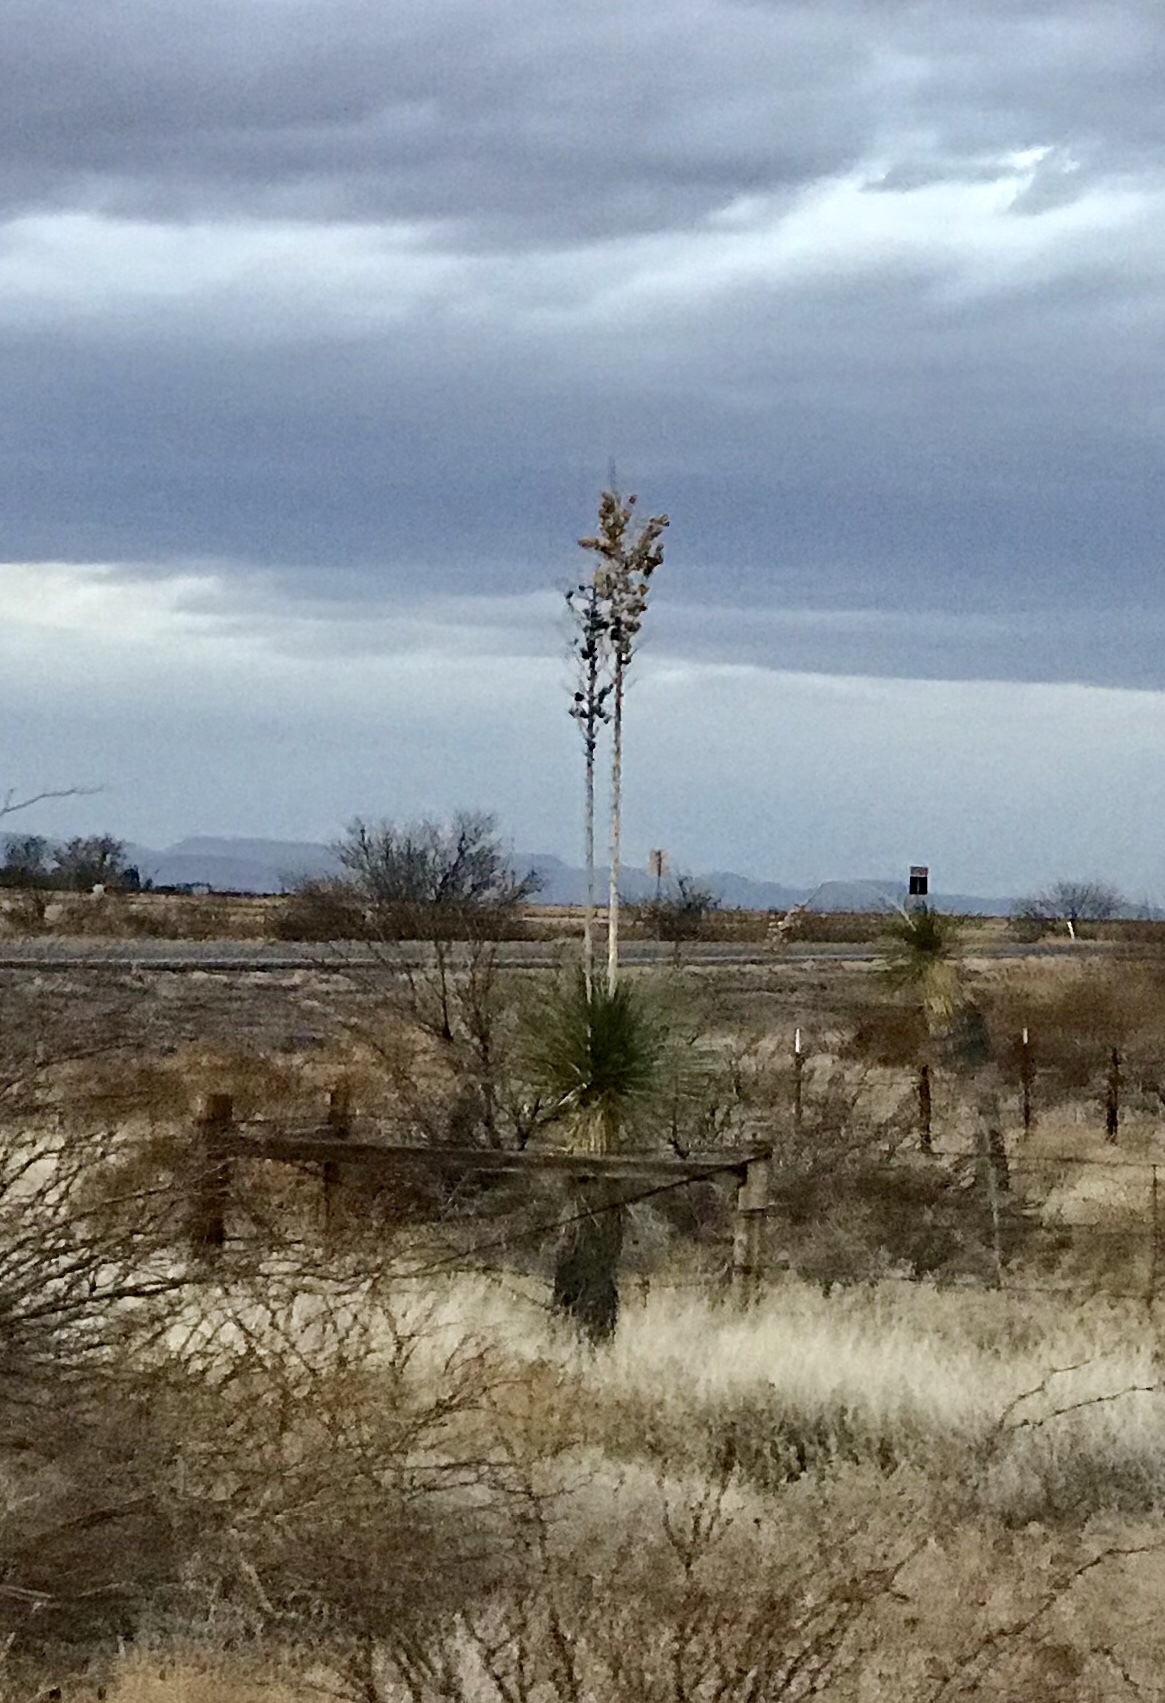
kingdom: Plantae
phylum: Tracheophyta
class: Liliopsida
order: Asparagales
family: Asparagaceae
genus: Yucca
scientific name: Yucca elata
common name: Palmella
